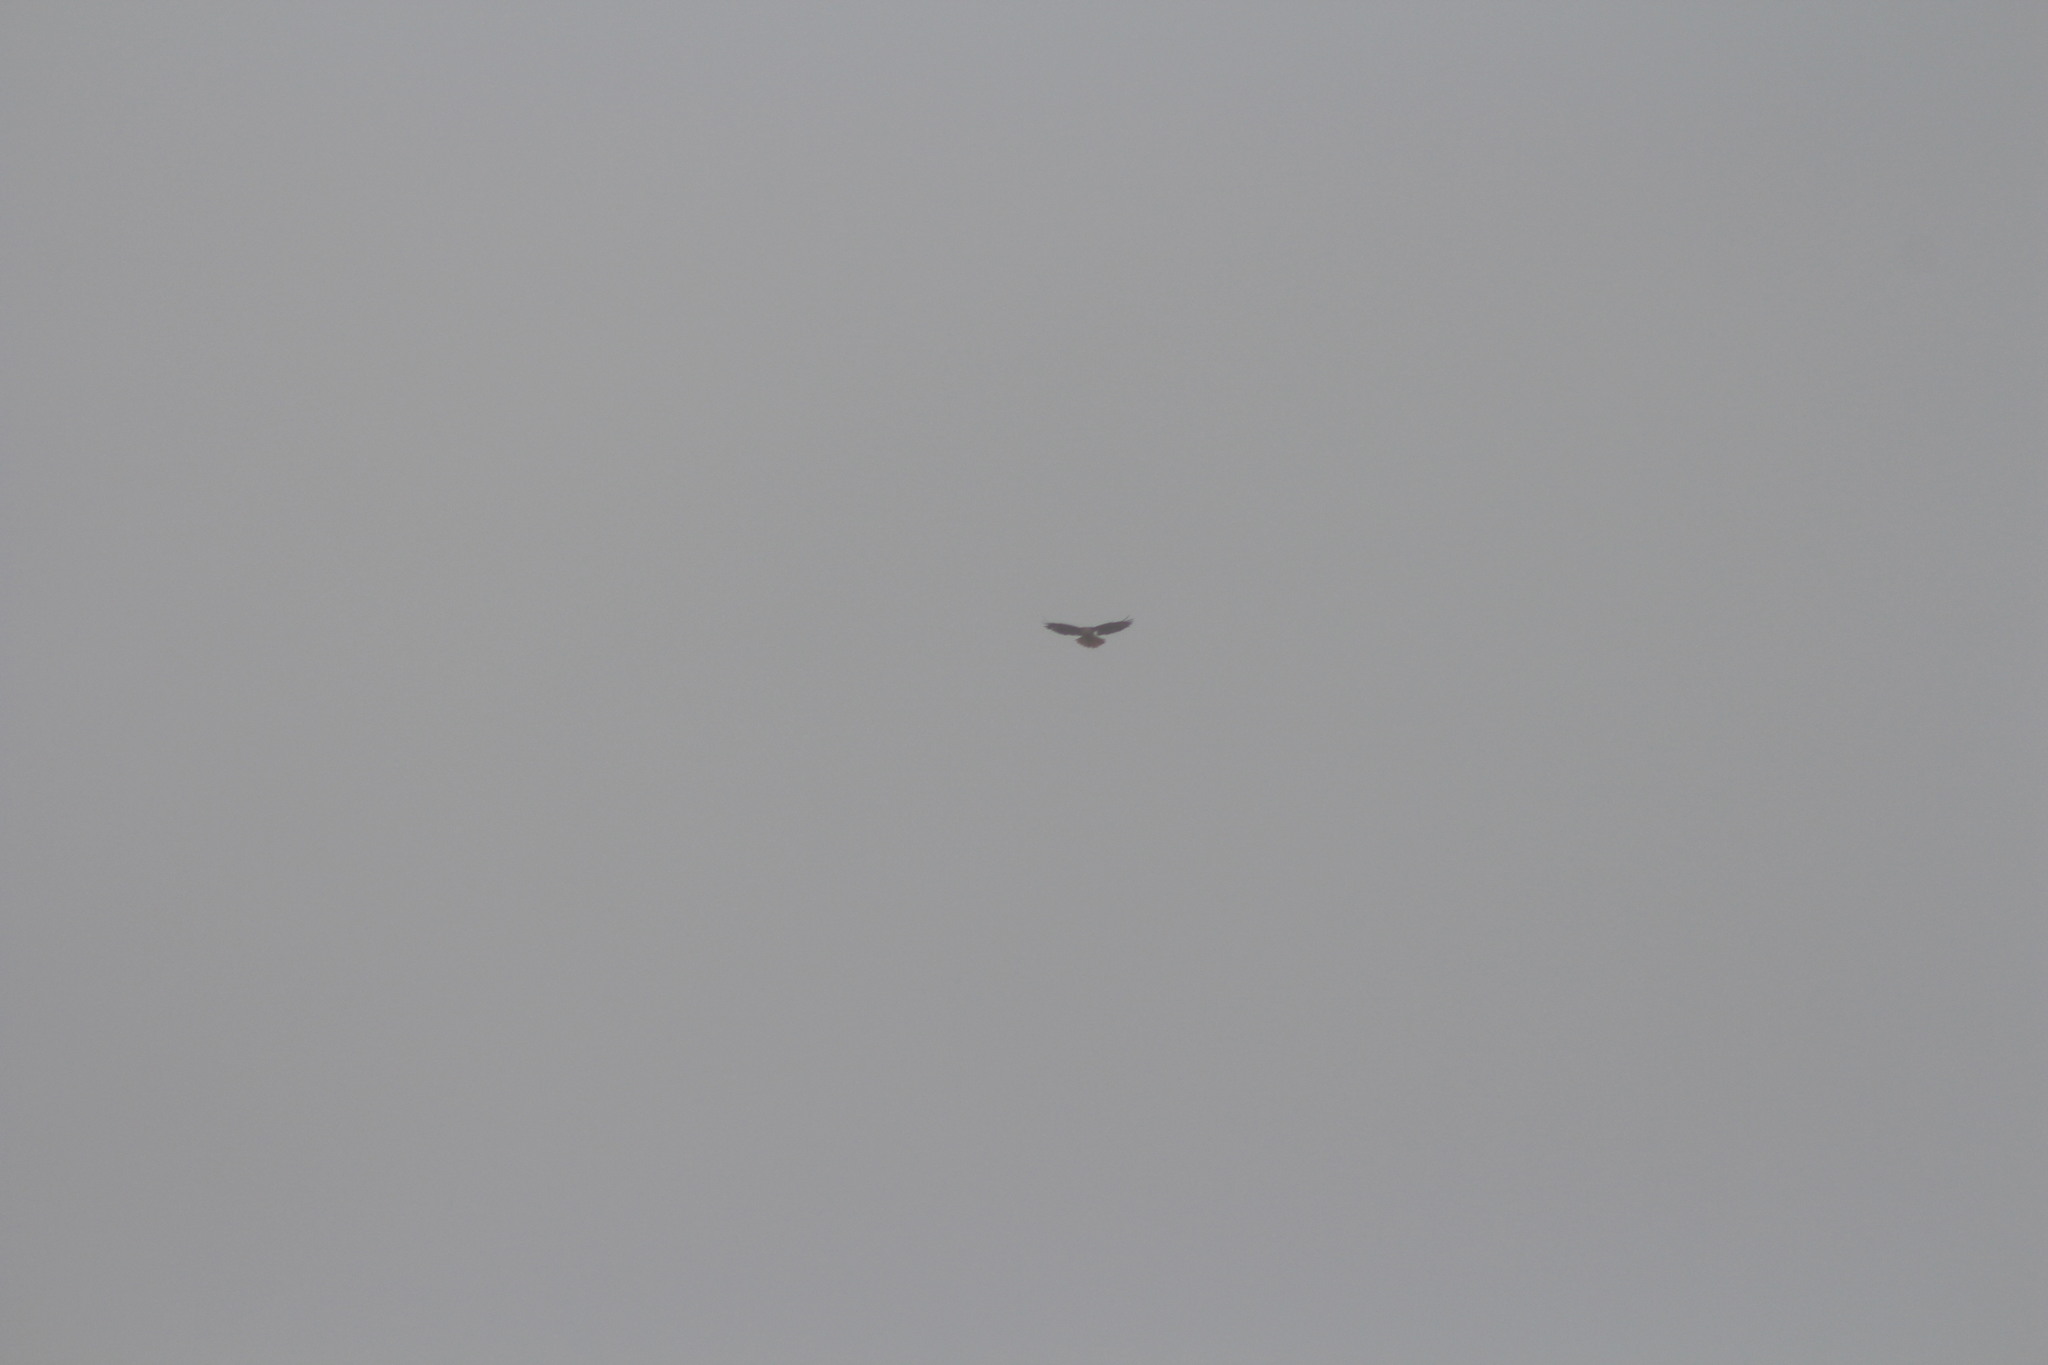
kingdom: Animalia
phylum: Chordata
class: Aves
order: Accipitriformes
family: Accipitridae
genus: Buteo
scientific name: Buteo jamaicensis
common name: Red-tailed hawk
